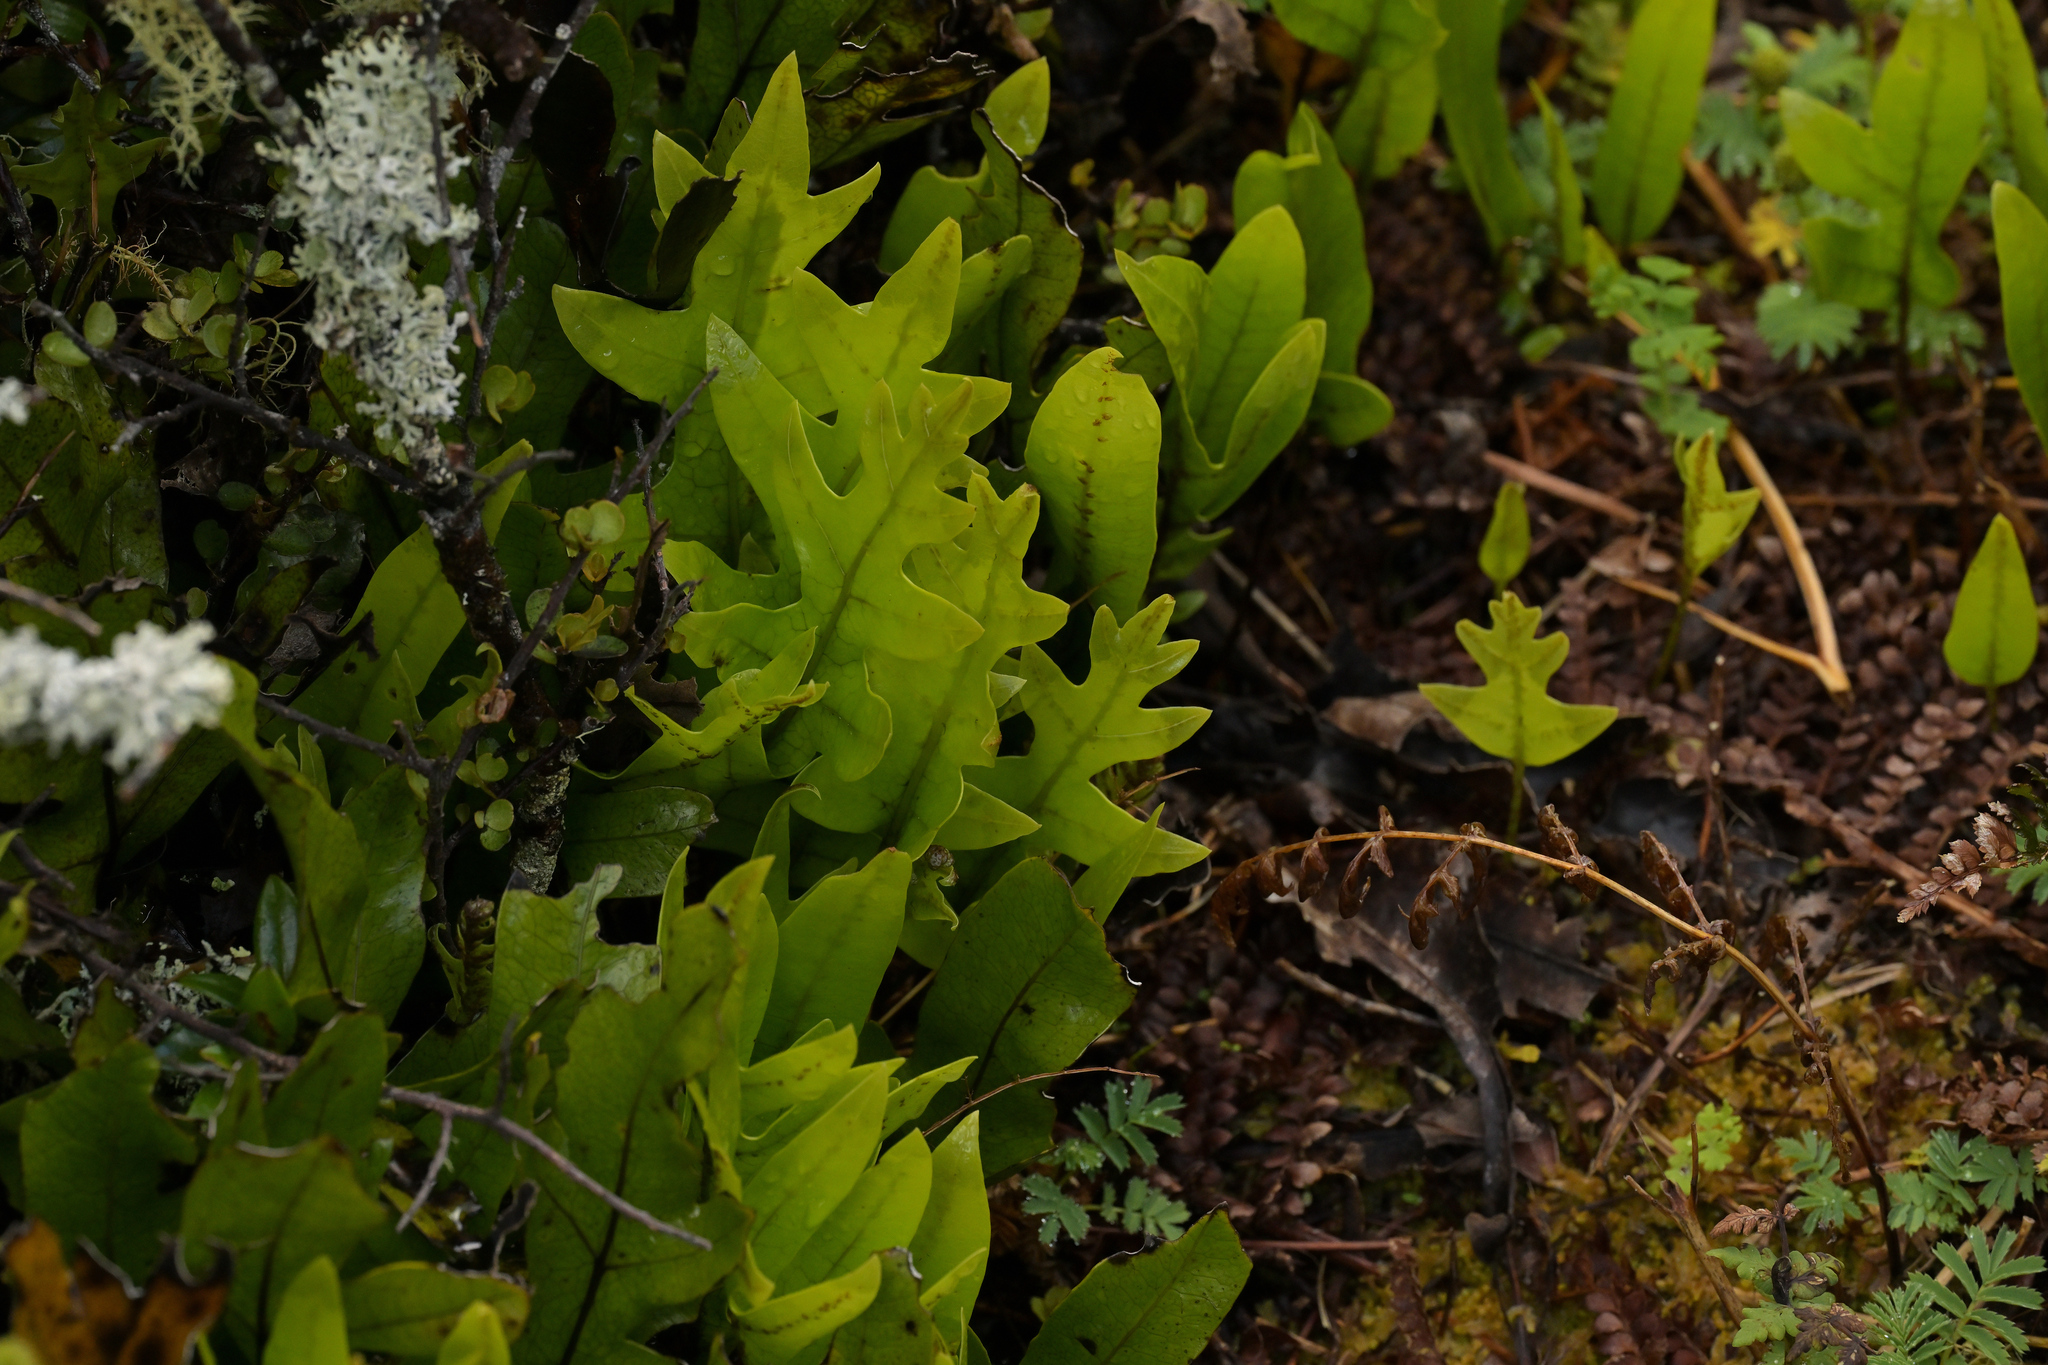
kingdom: Plantae
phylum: Tracheophyta
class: Polypodiopsida
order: Polypodiales
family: Polypodiaceae
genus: Lecanopteris
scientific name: Lecanopteris pustulata
